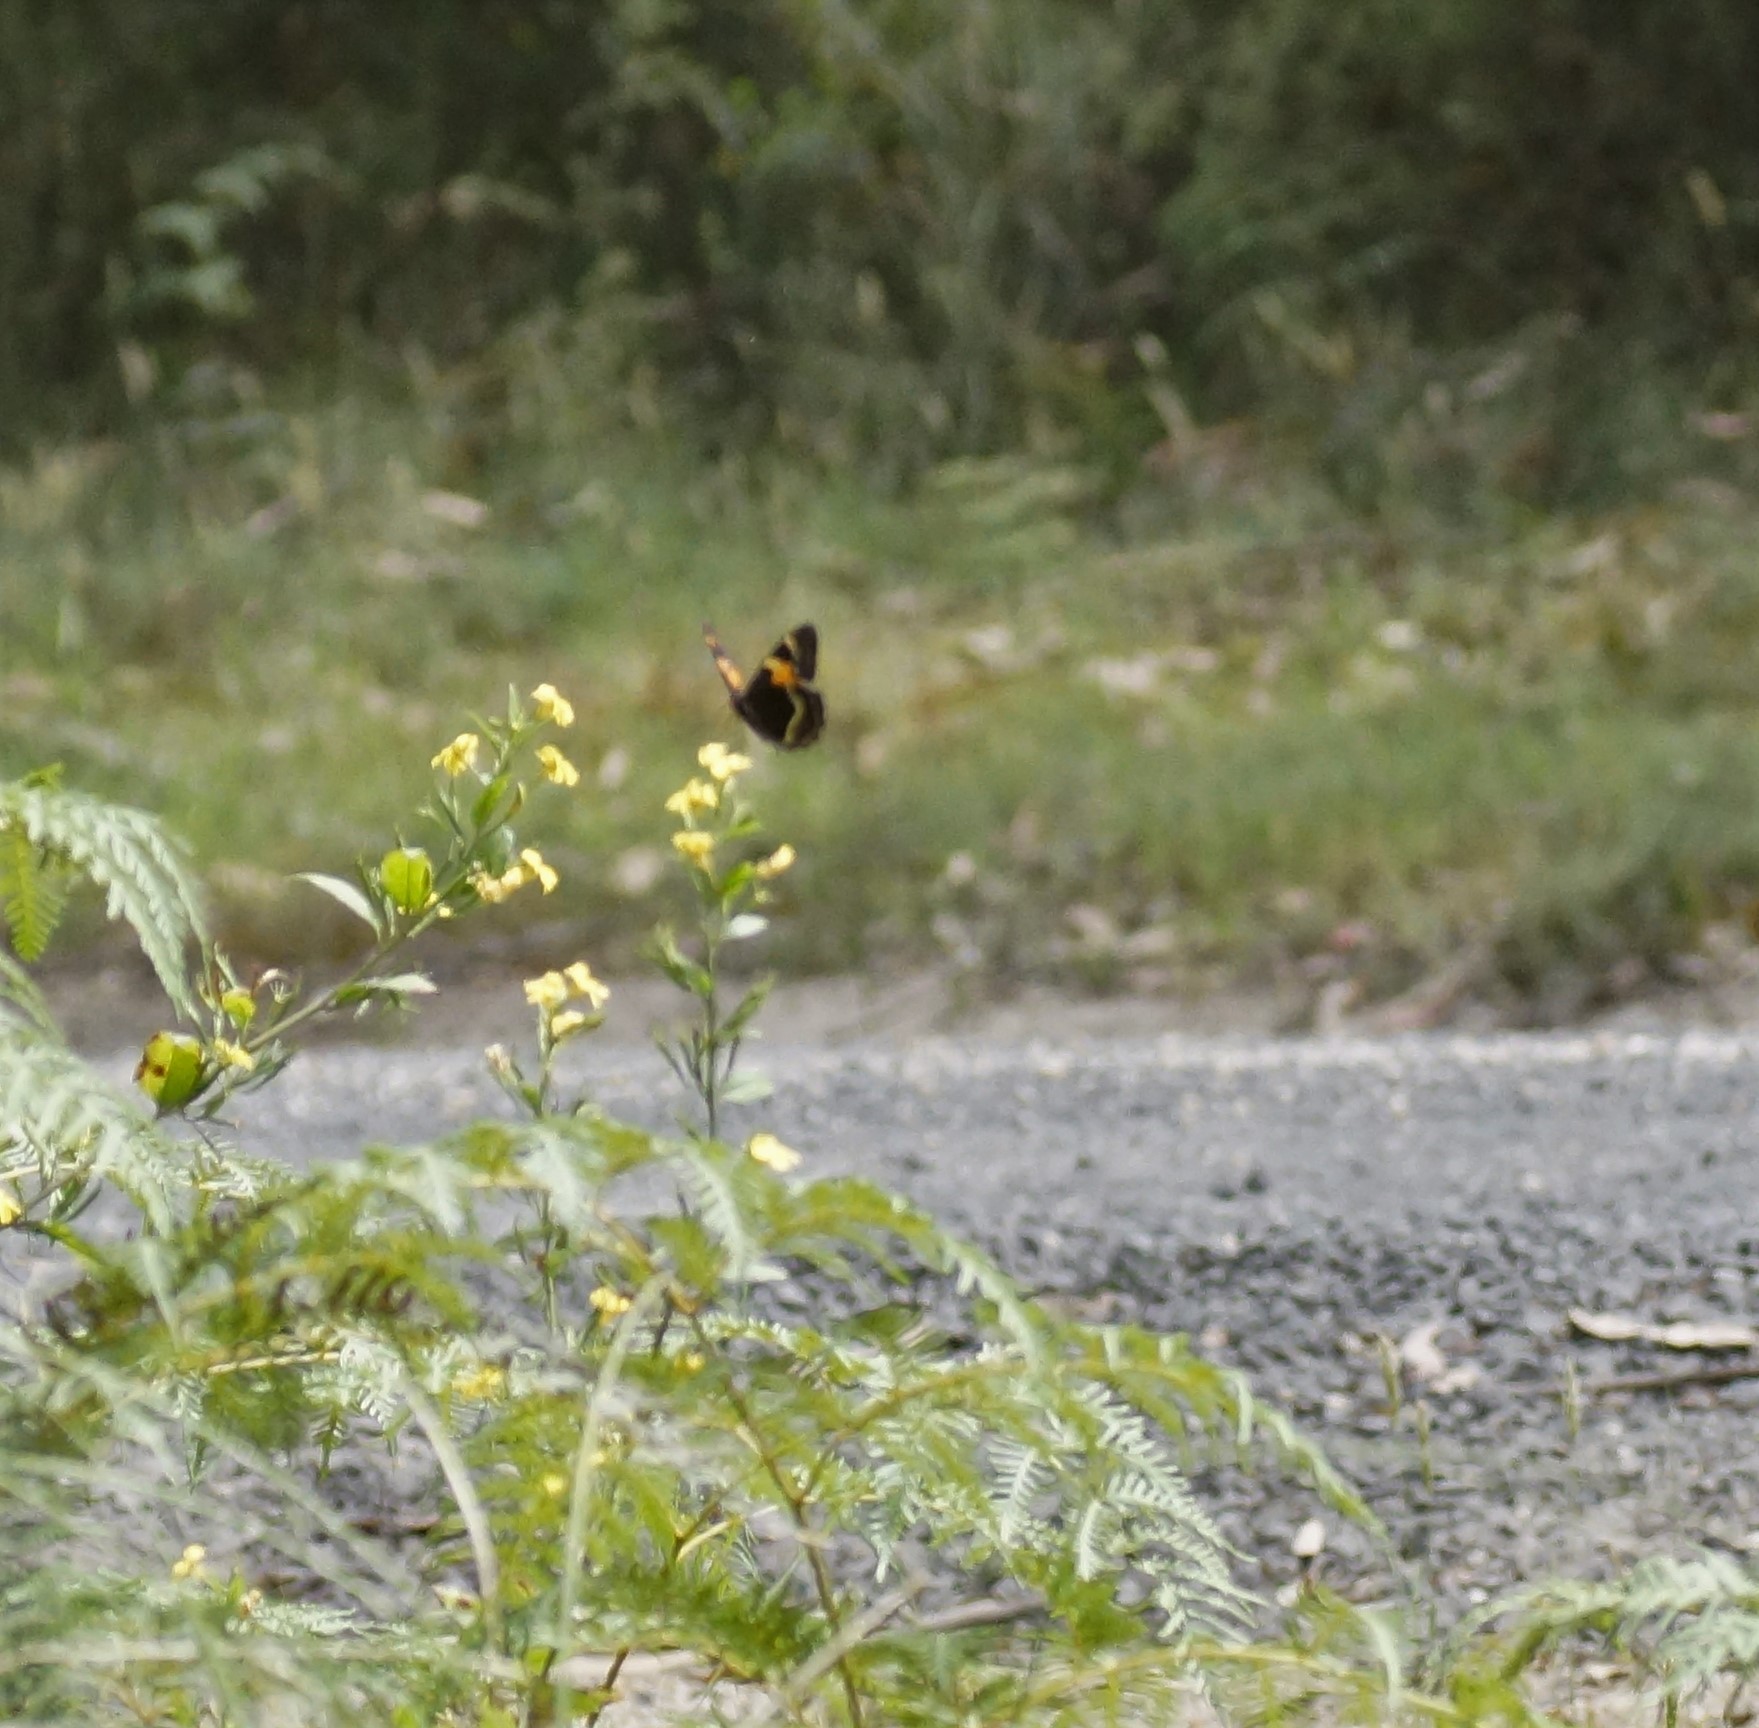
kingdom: Animalia
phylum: Arthropoda
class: Insecta
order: Lepidoptera
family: Nymphalidae
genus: Tisiphone
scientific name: Tisiphone abeona
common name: Swordgrass brown
